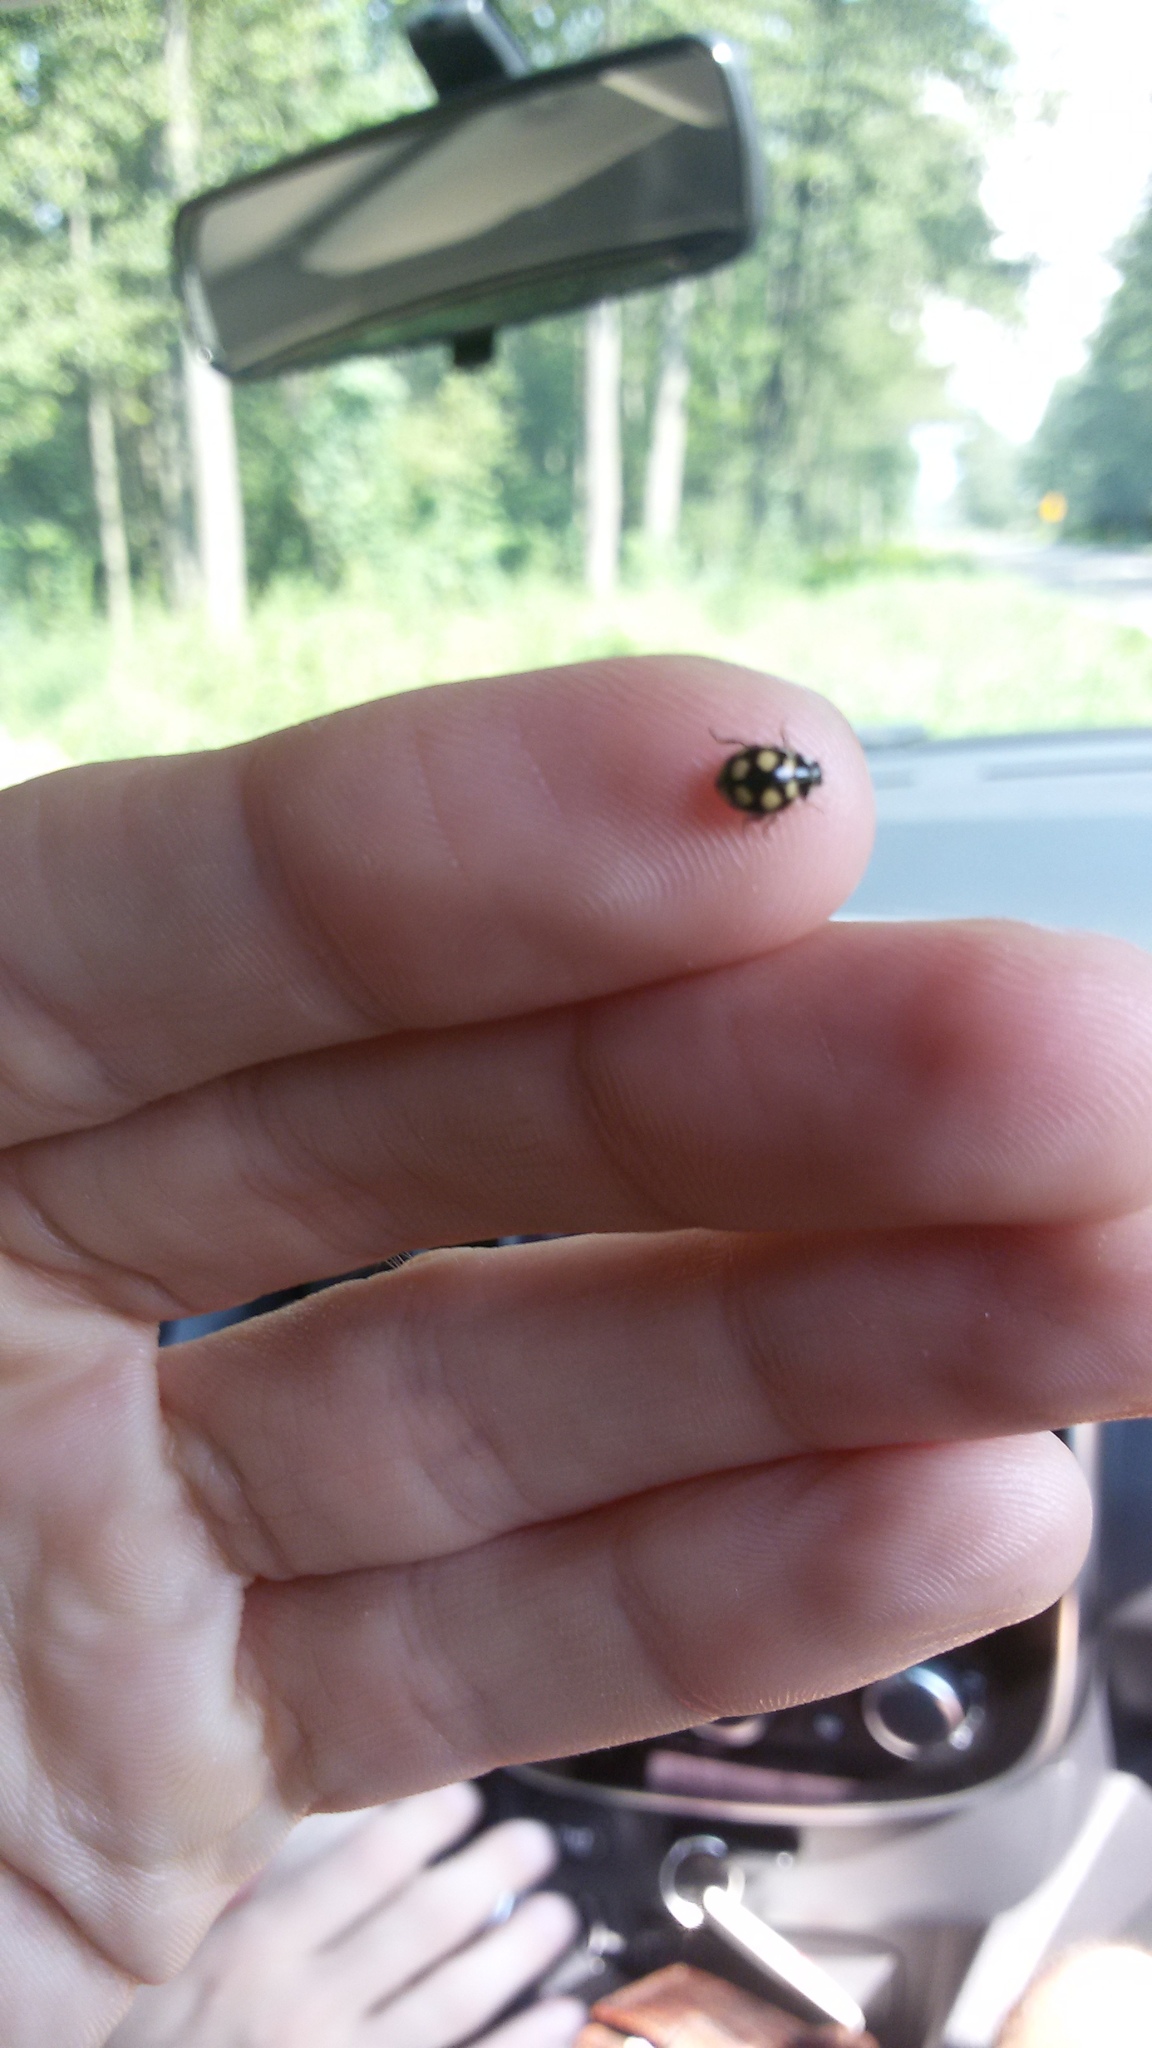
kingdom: Animalia
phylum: Arthropoda
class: Insecta
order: Coleoptera
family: Coccinellidae
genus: Coccinula
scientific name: Coccinula quatuordecimpustulata
